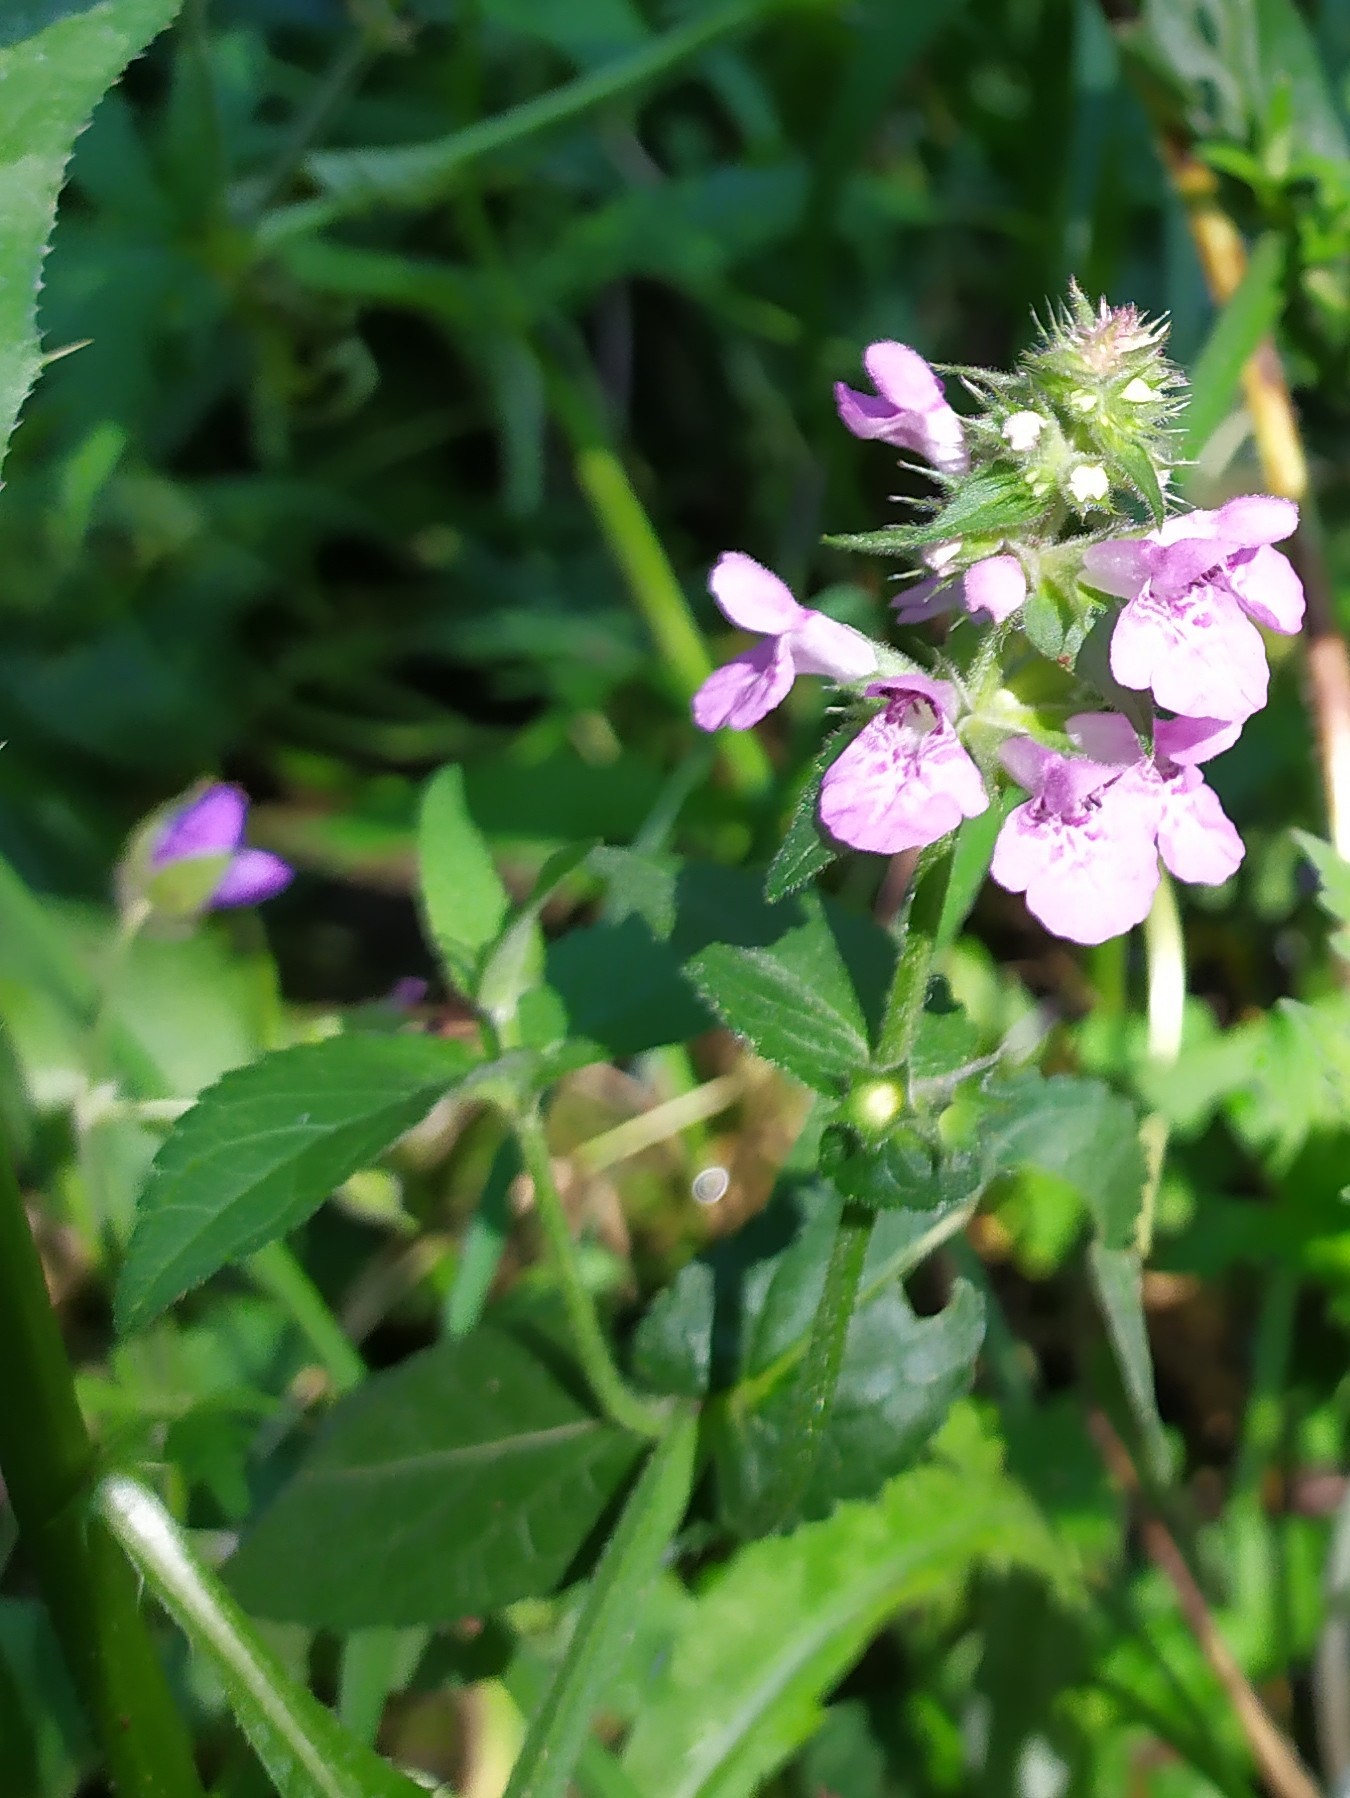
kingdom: Plantae
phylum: Tracheophyta
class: Magnoliopsida
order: Lamiales
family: Lamiaceae
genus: Stachys
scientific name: Stachys palustris
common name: Marsh woundwort
